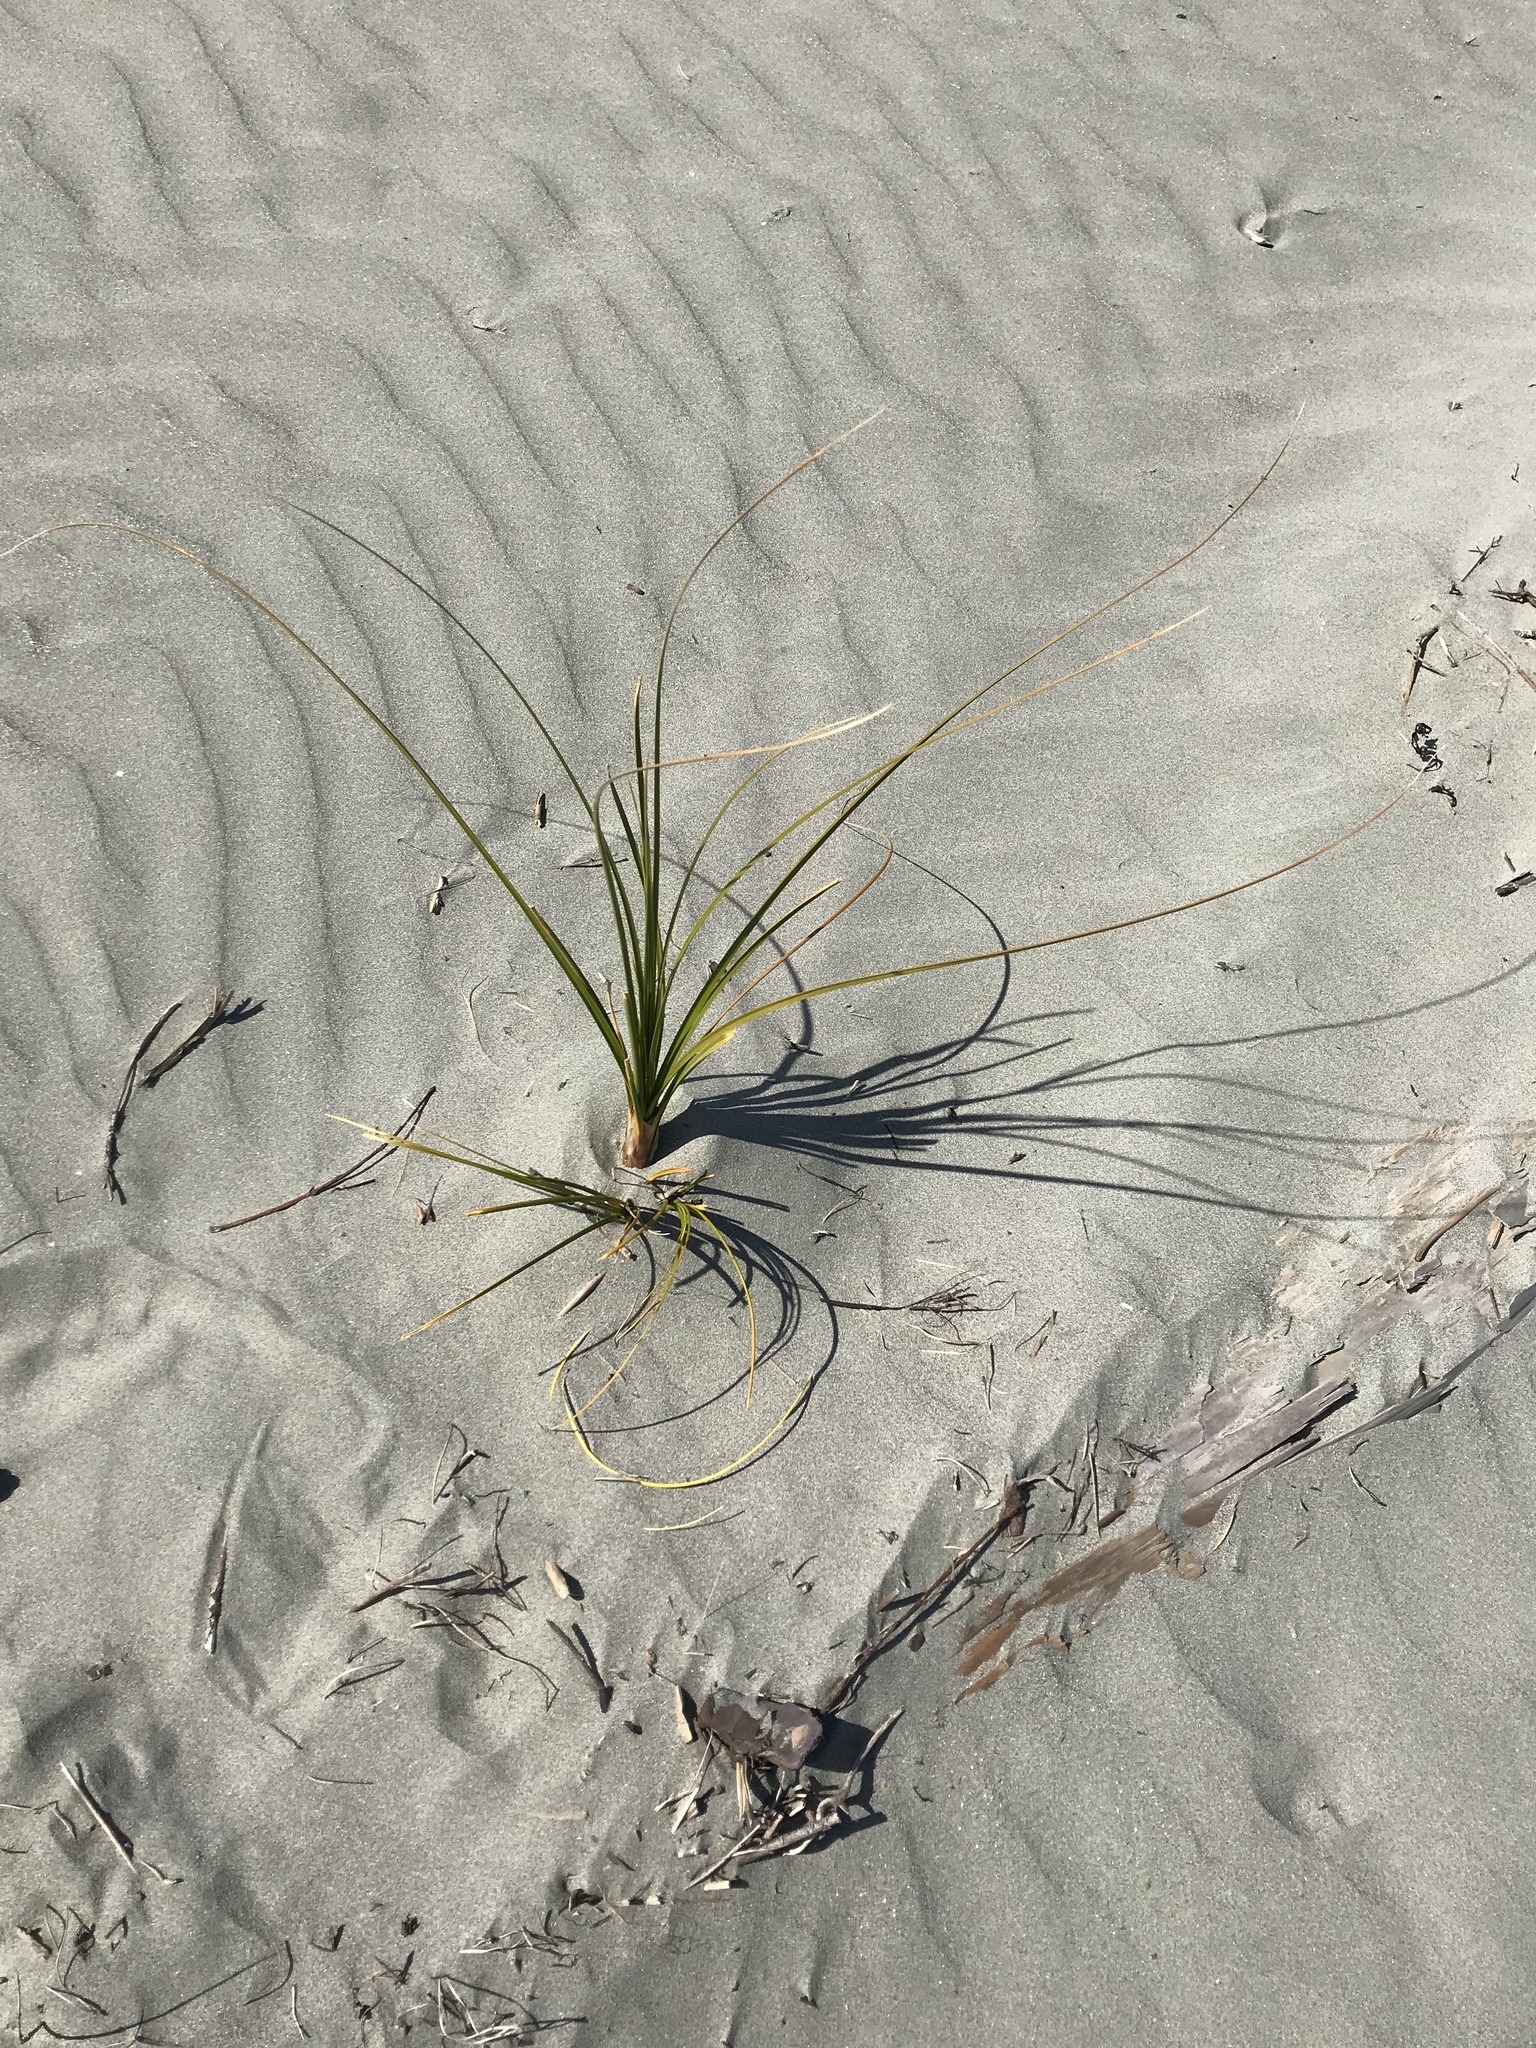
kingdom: Plantae
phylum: Tracheophyta
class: Liliopsida
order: Poales
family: Cyperaceae
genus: Ficinia
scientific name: Ficinia spiralis
